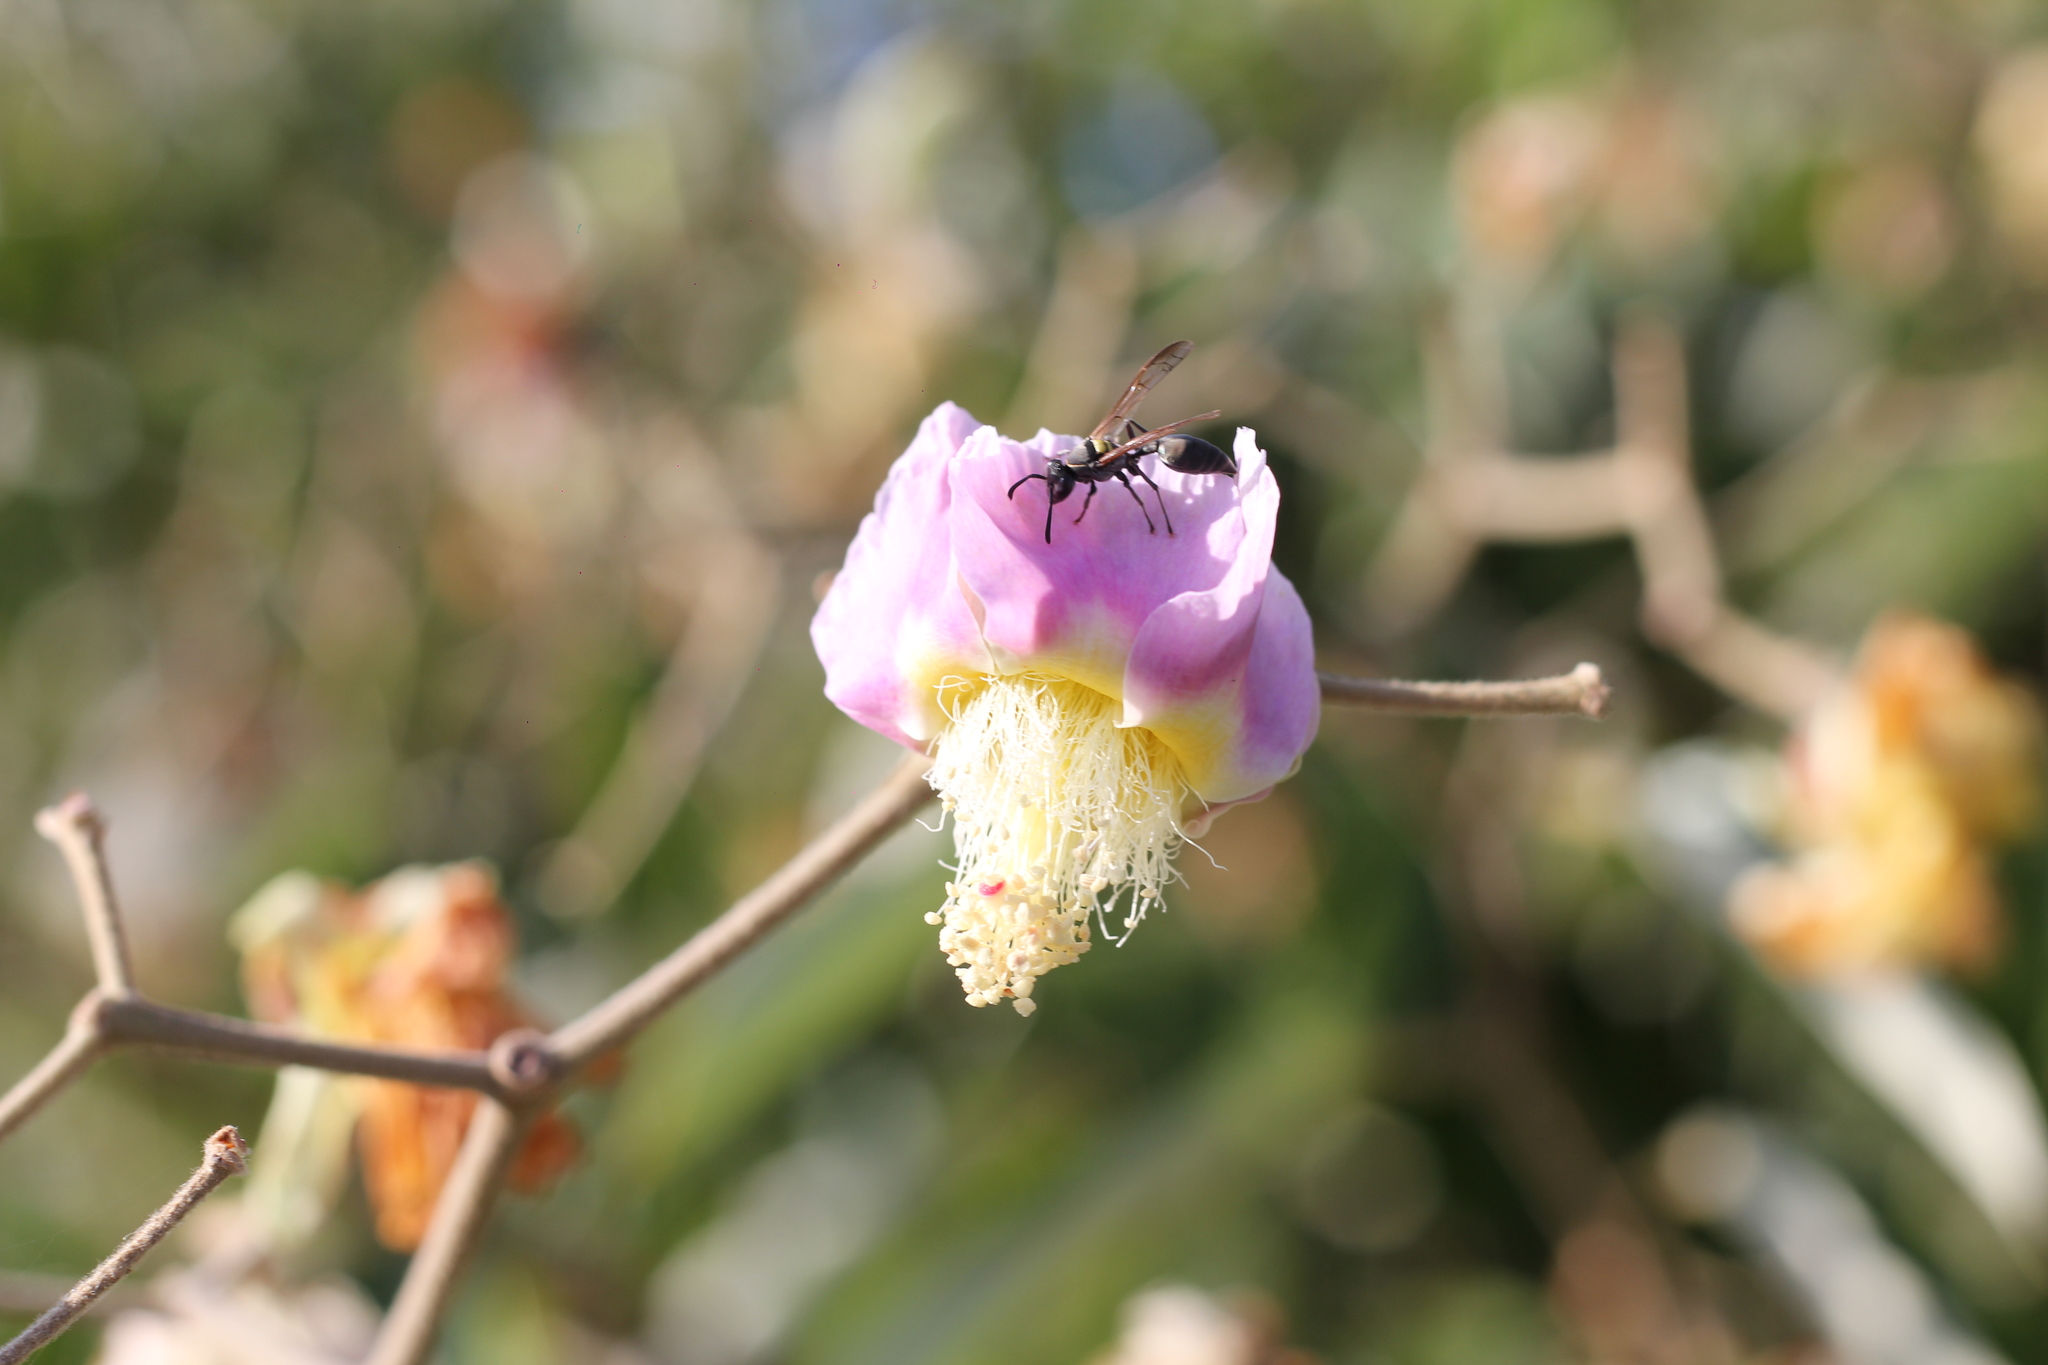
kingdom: Animalia
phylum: Arthropoda
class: Insecta
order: Hymenoptera
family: Eumenidae
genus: Polybia
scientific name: Polybia scutellaris
